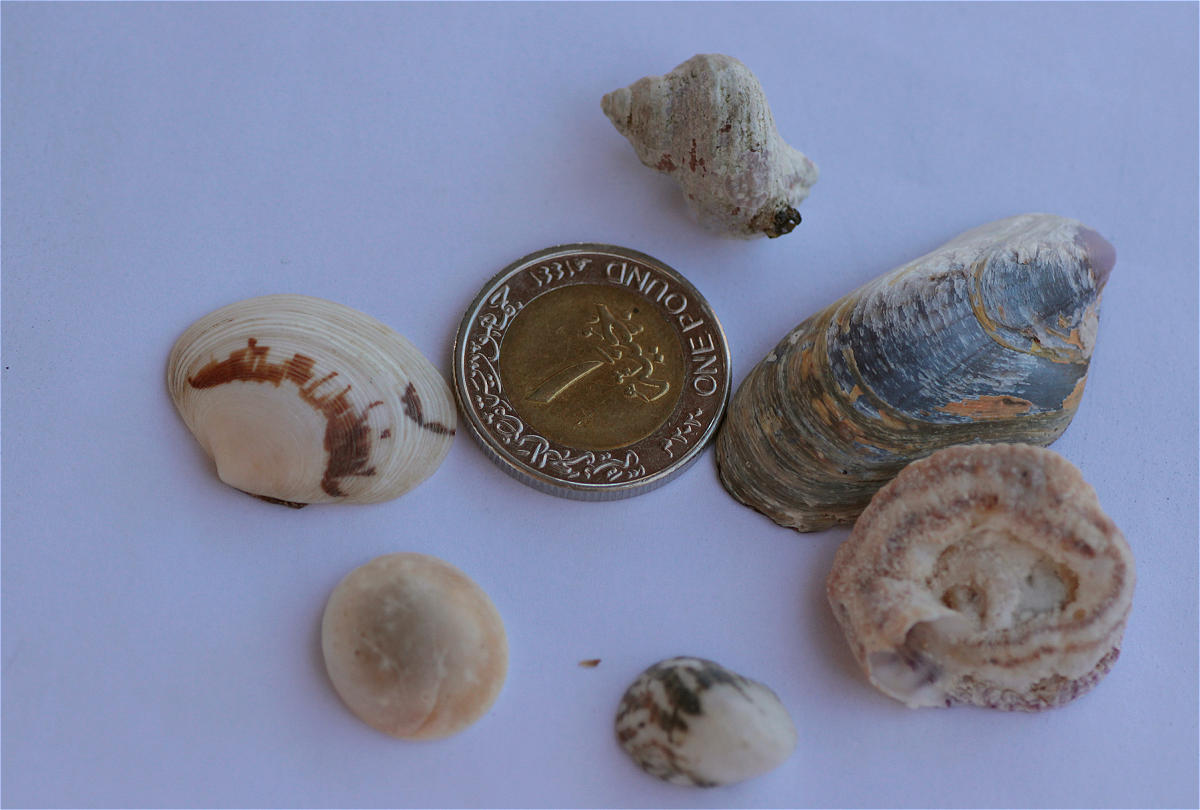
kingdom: Animalia
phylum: Mollusca
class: Gastropoda
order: Cycloneritida
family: Neritidae
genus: Nerita
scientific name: Nerita albicilla
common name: Blotched nerite
